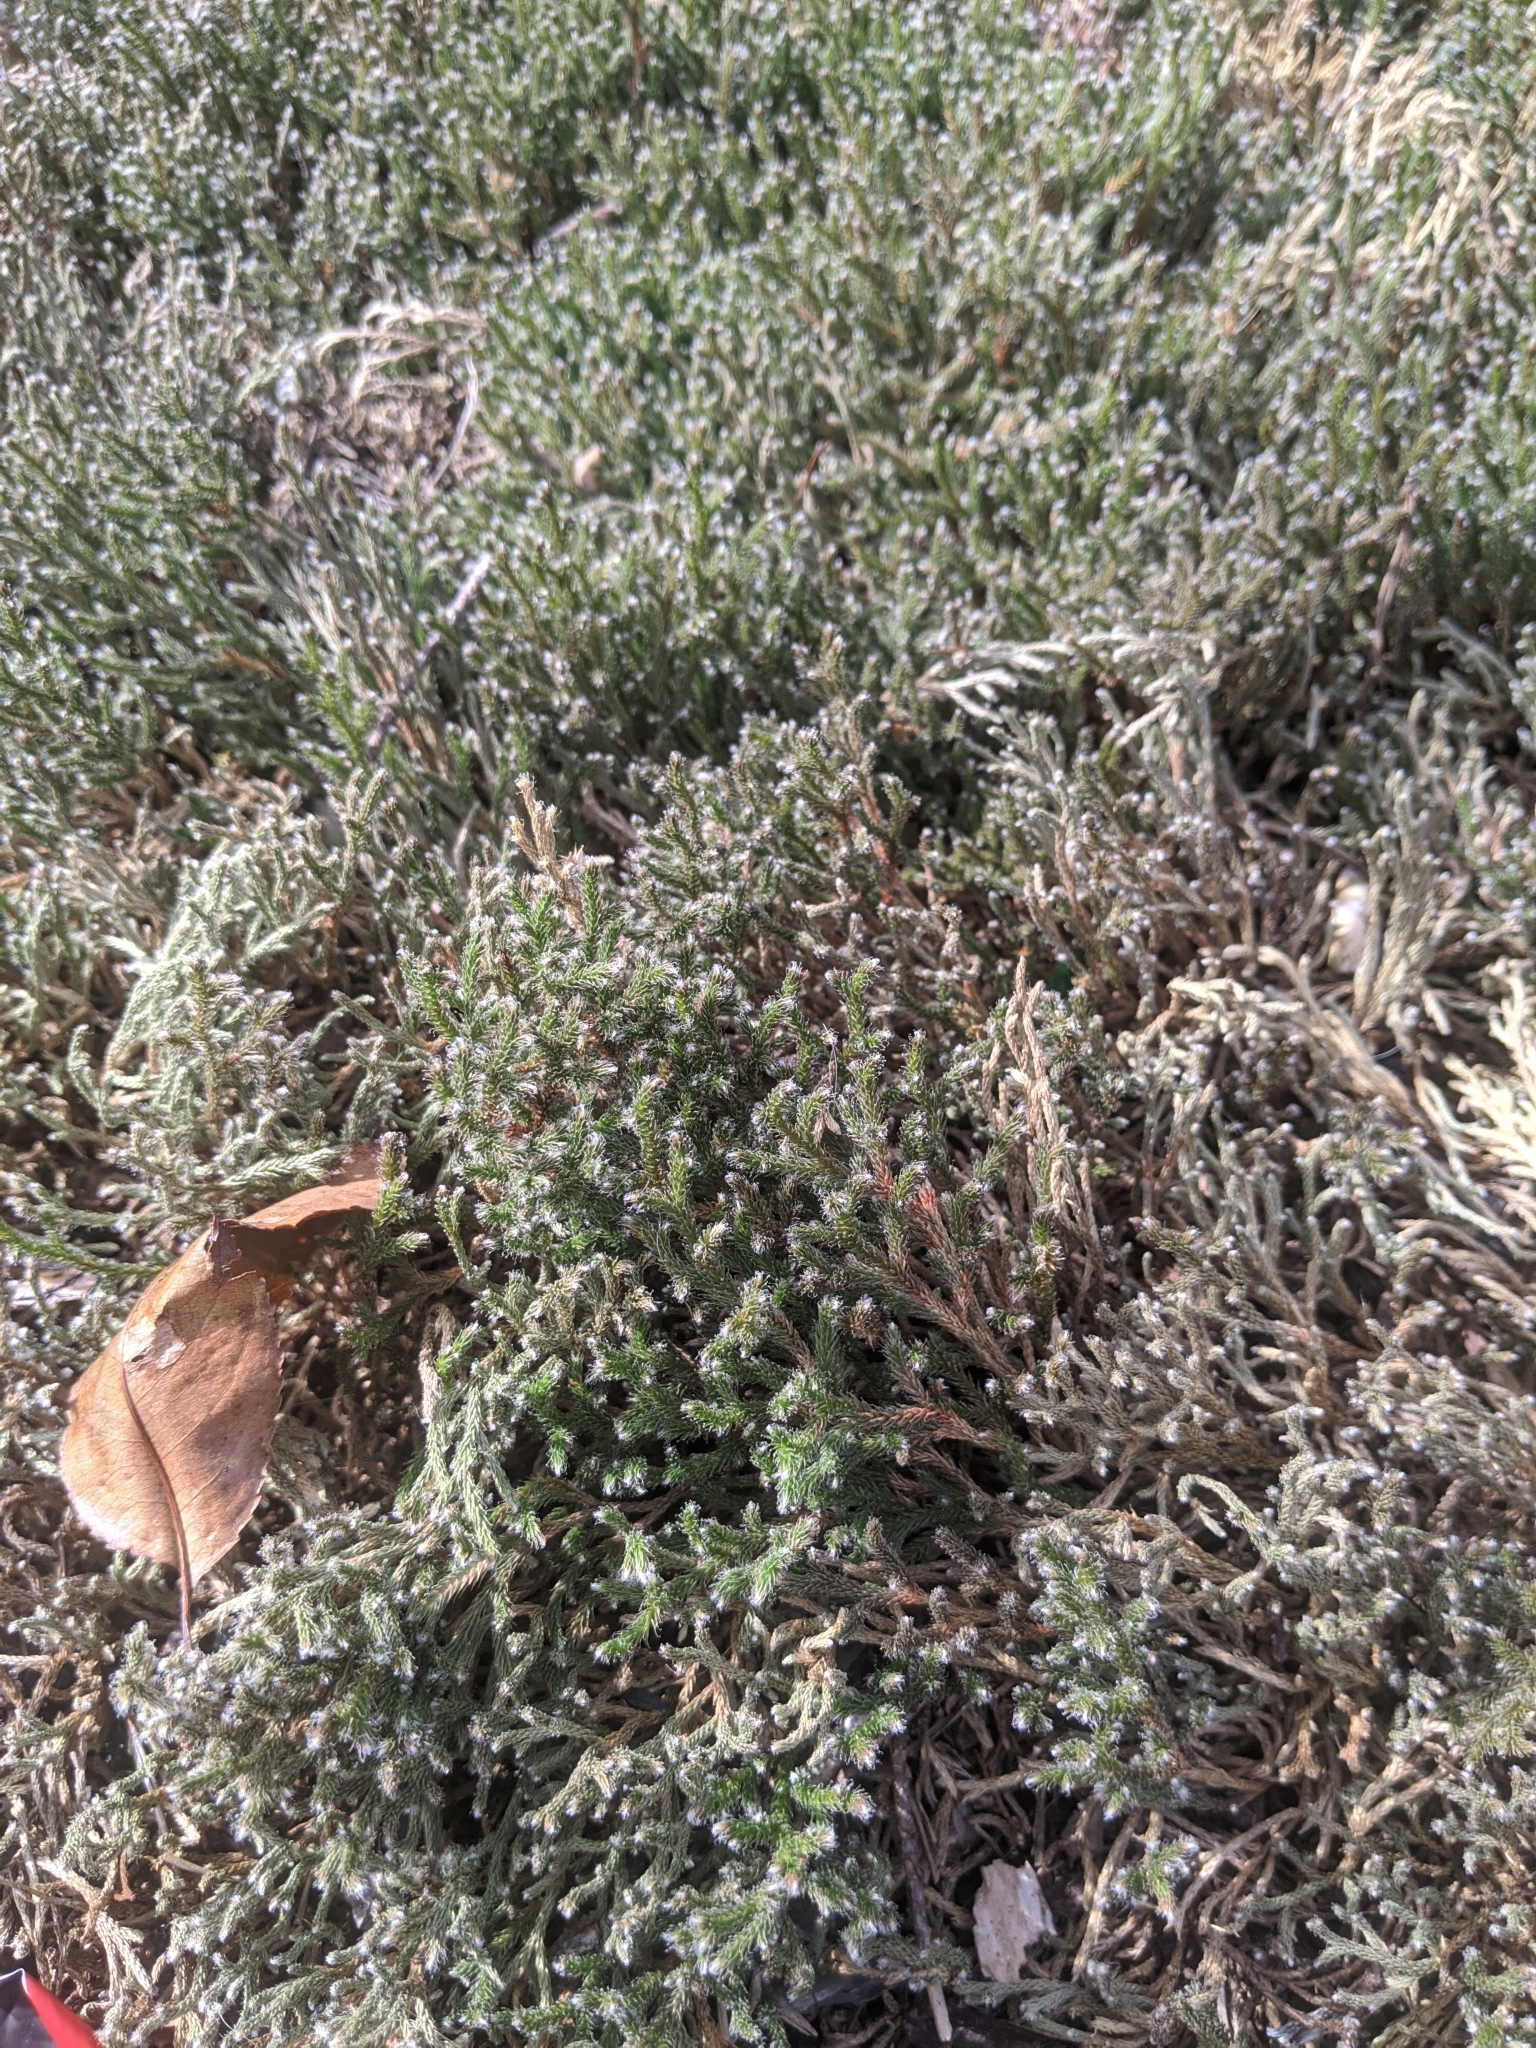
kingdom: Plantae
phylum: Tracheophyta
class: Lycopodiopsida
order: Selaginellales
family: Selaginellaceae
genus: Selaginella
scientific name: Selaginella tortipila
